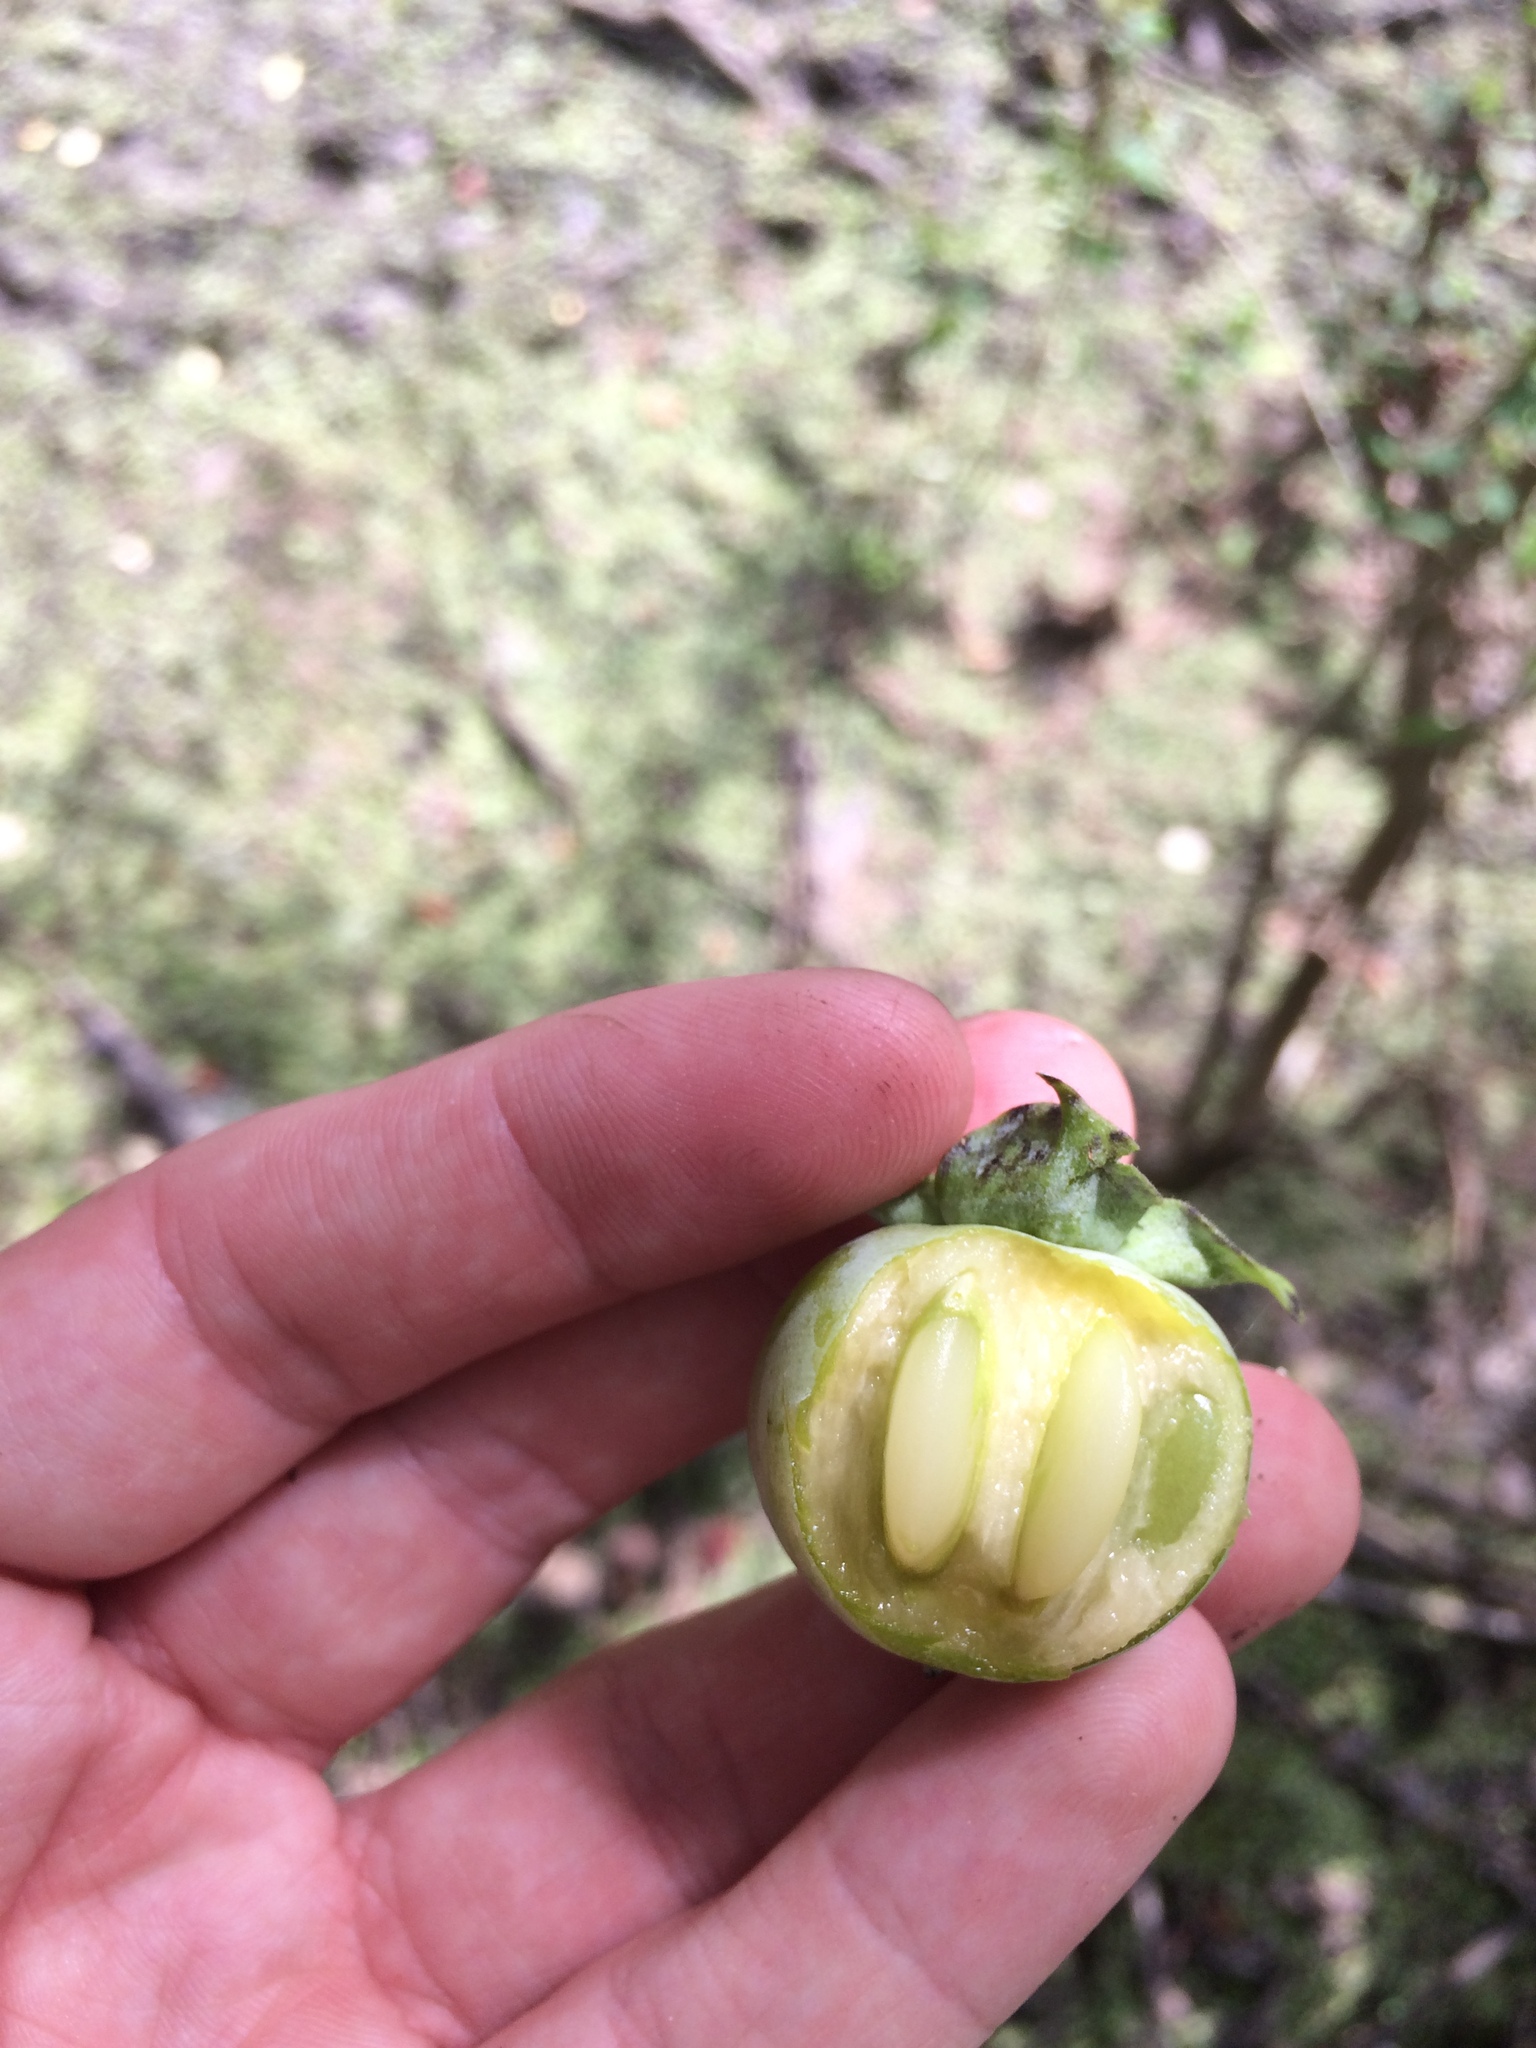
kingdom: Plantae
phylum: Tracheophyta
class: Magnoliopsida
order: Ericales
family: Ebenaceae
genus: Diospyros
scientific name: Diospyros virginiana
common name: Persimmon
